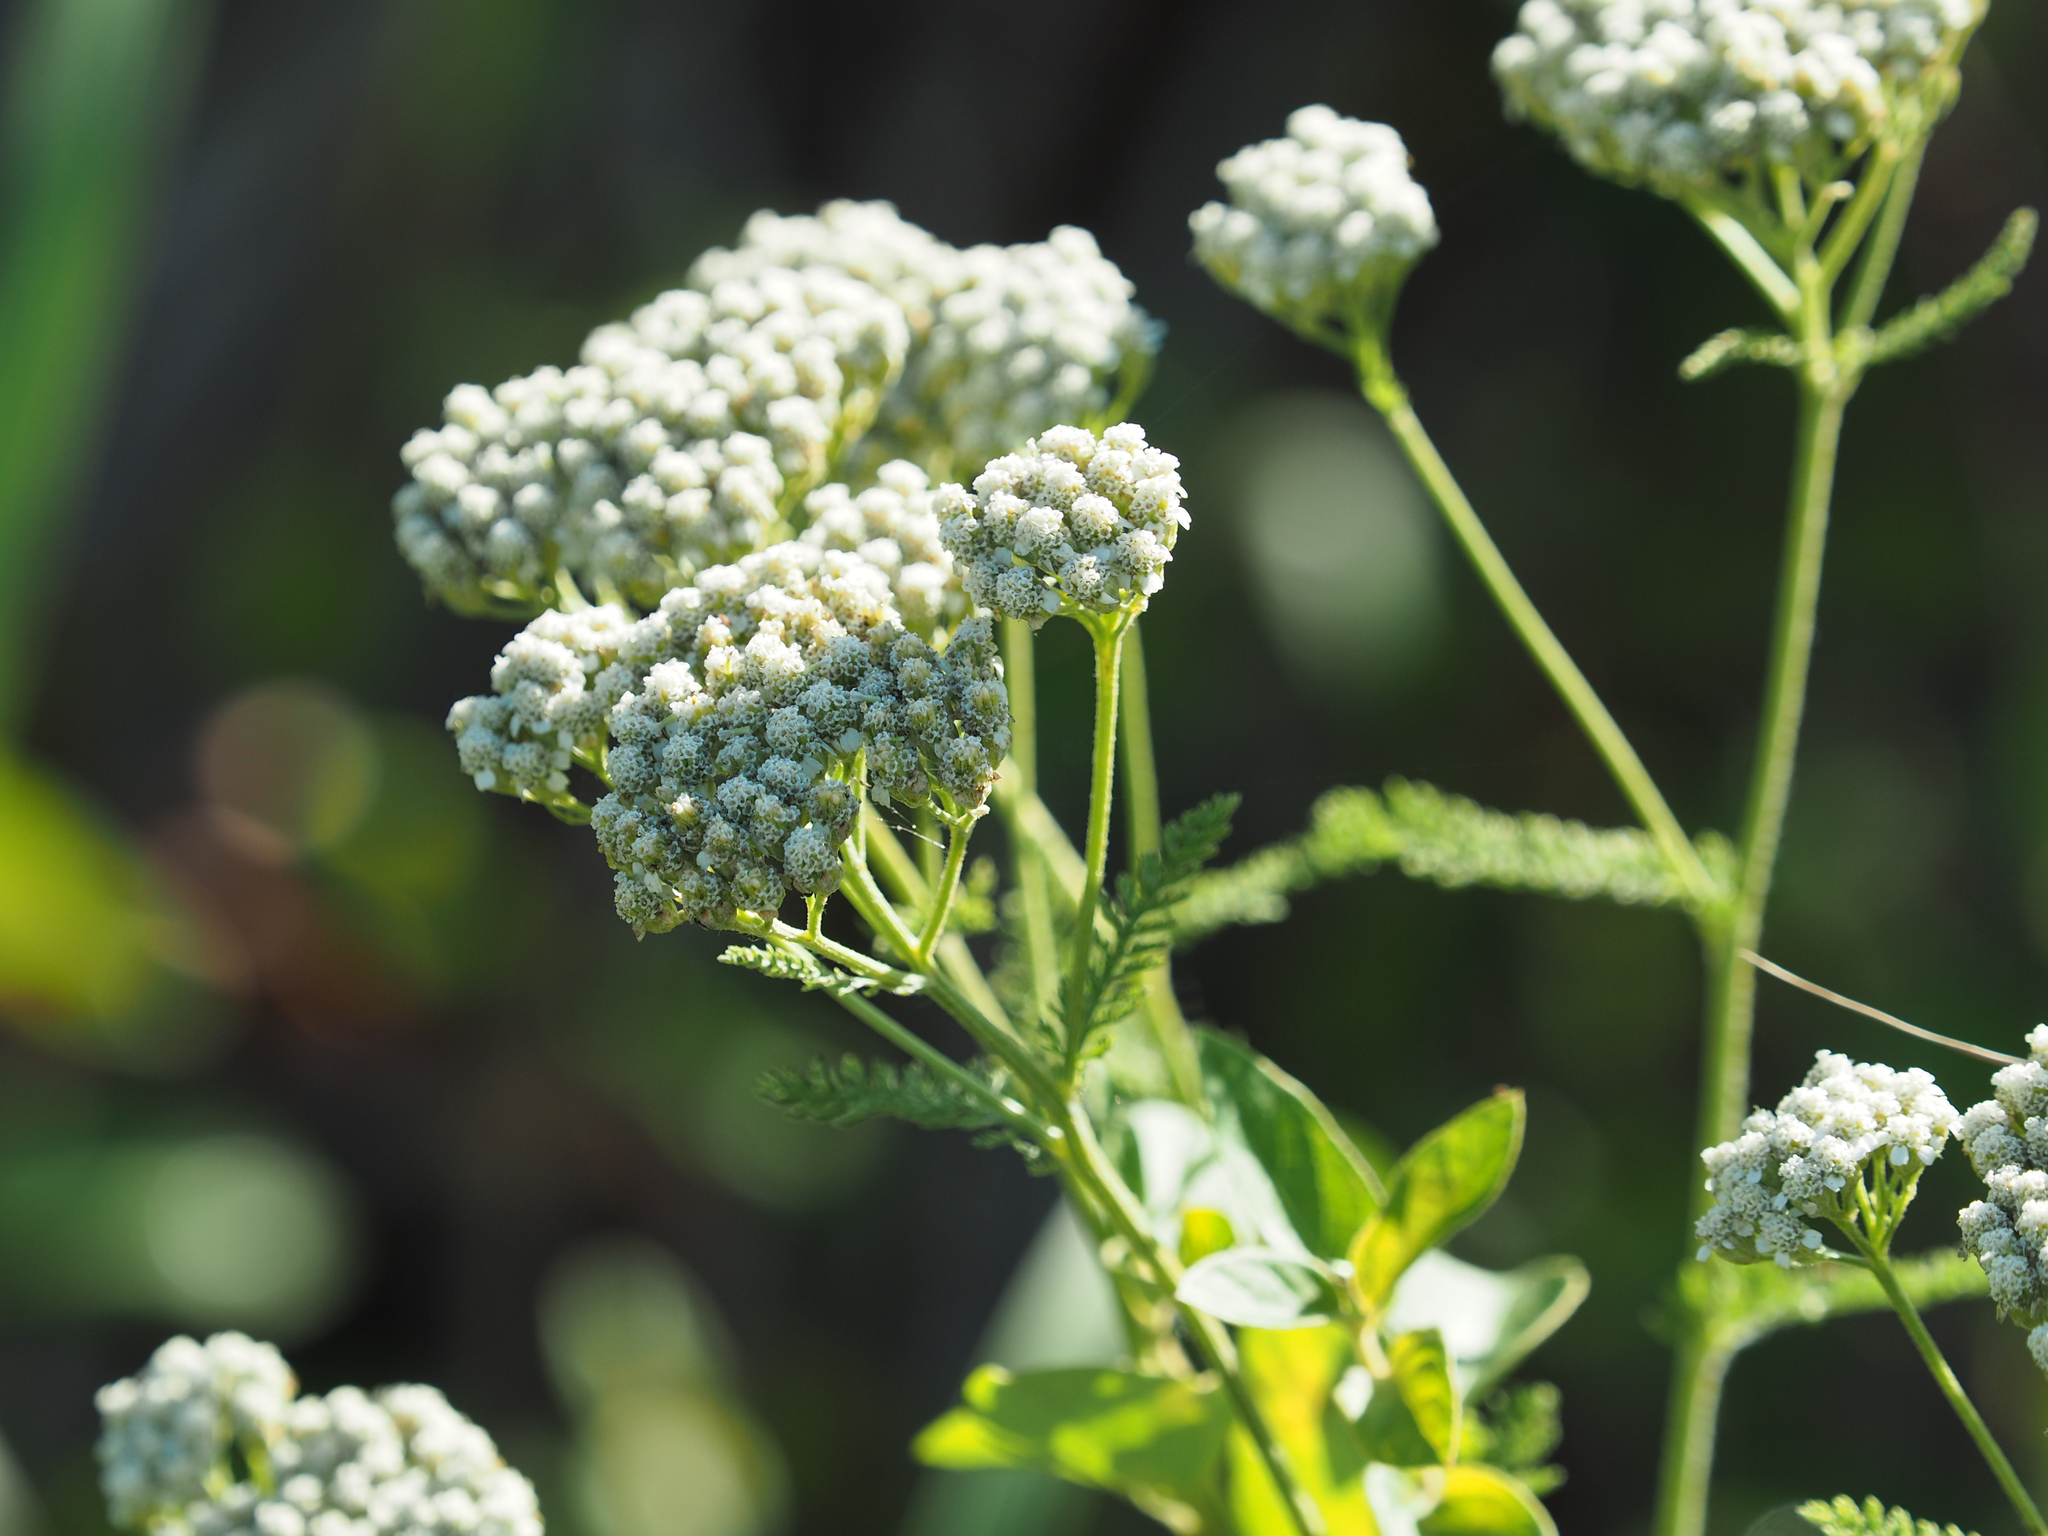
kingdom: Plantae
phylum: Tracheophyta
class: Magnoliopsida
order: Asterales
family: Asteraceae
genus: Achillea
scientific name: Achillea millefolium
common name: Yarrow
